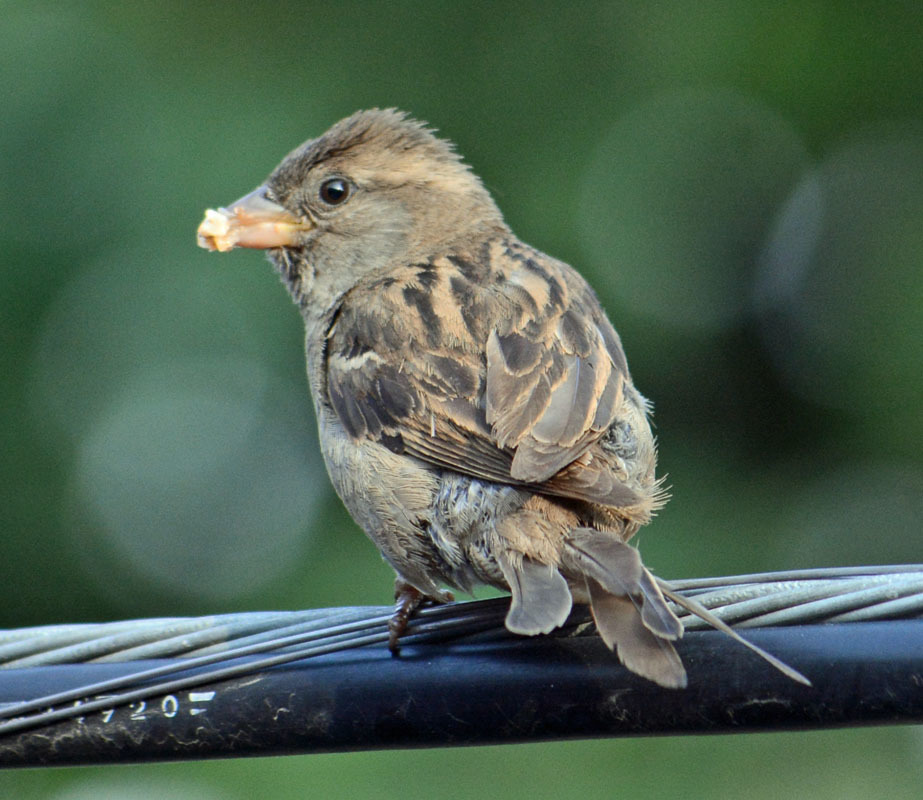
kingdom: Animalia
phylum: Chordata
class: Aves
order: Passeriformes
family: Passeridae
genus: Passer
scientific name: Passer domesticus
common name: House sparrow
